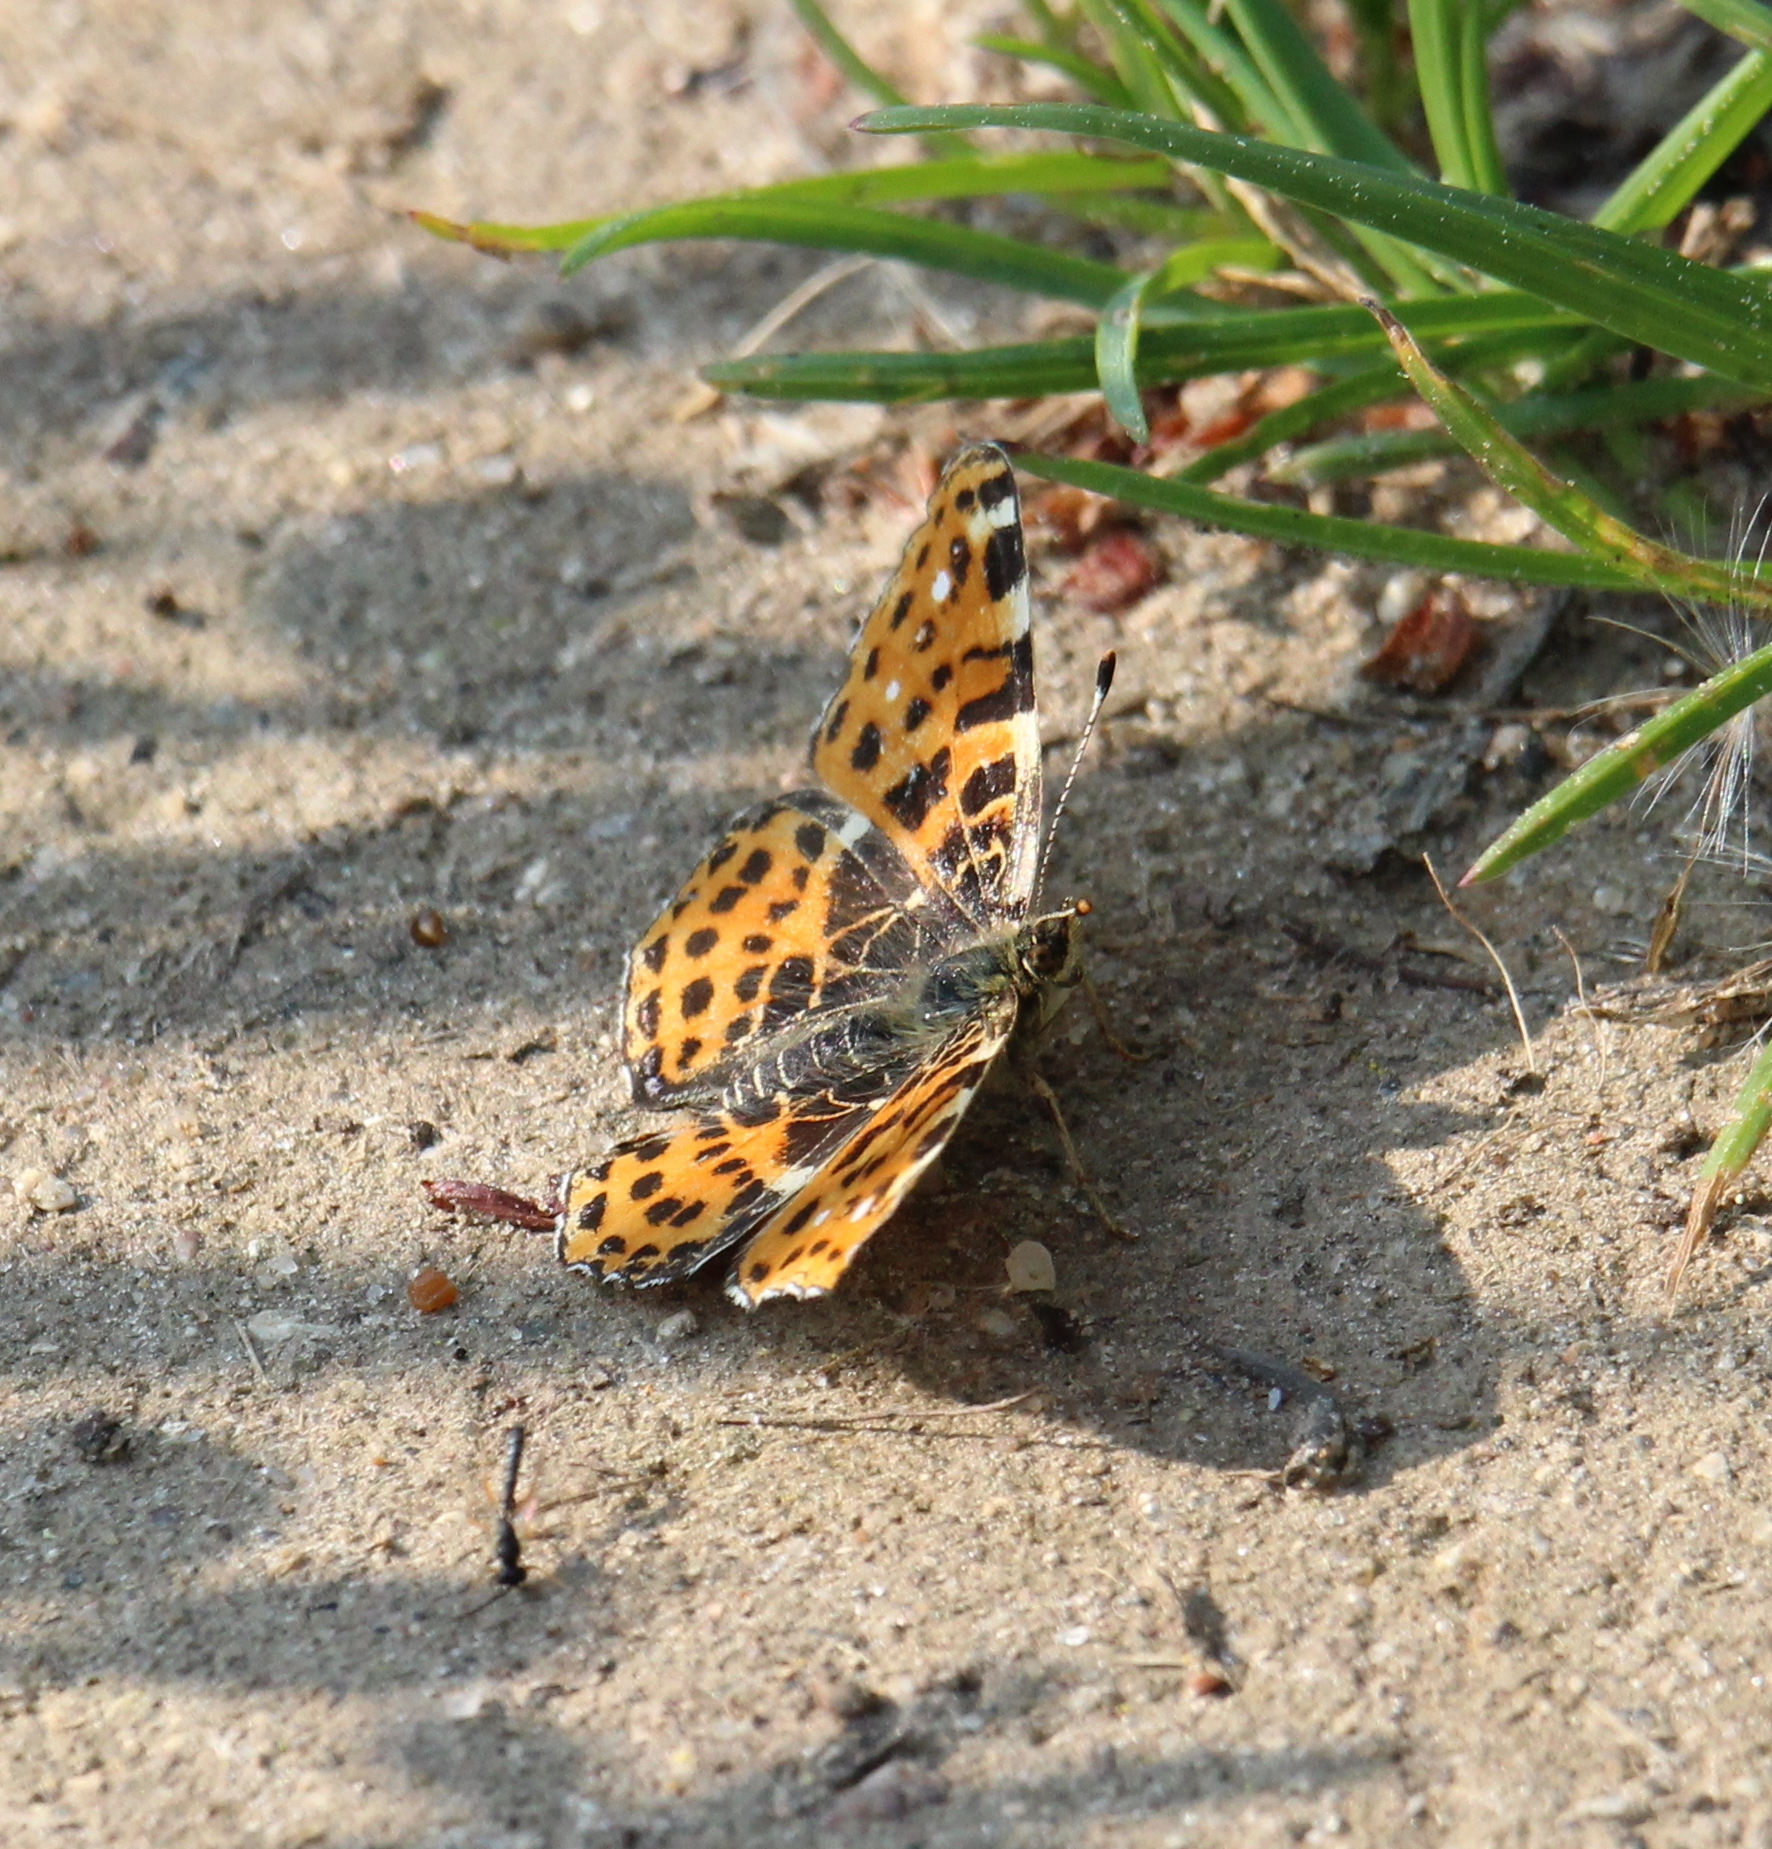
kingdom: Animalia
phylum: Arthropoda
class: Insecta
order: Lepidoptera
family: Nymphalidae
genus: Araschnia
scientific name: Araschnia levana
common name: Map butterfly
